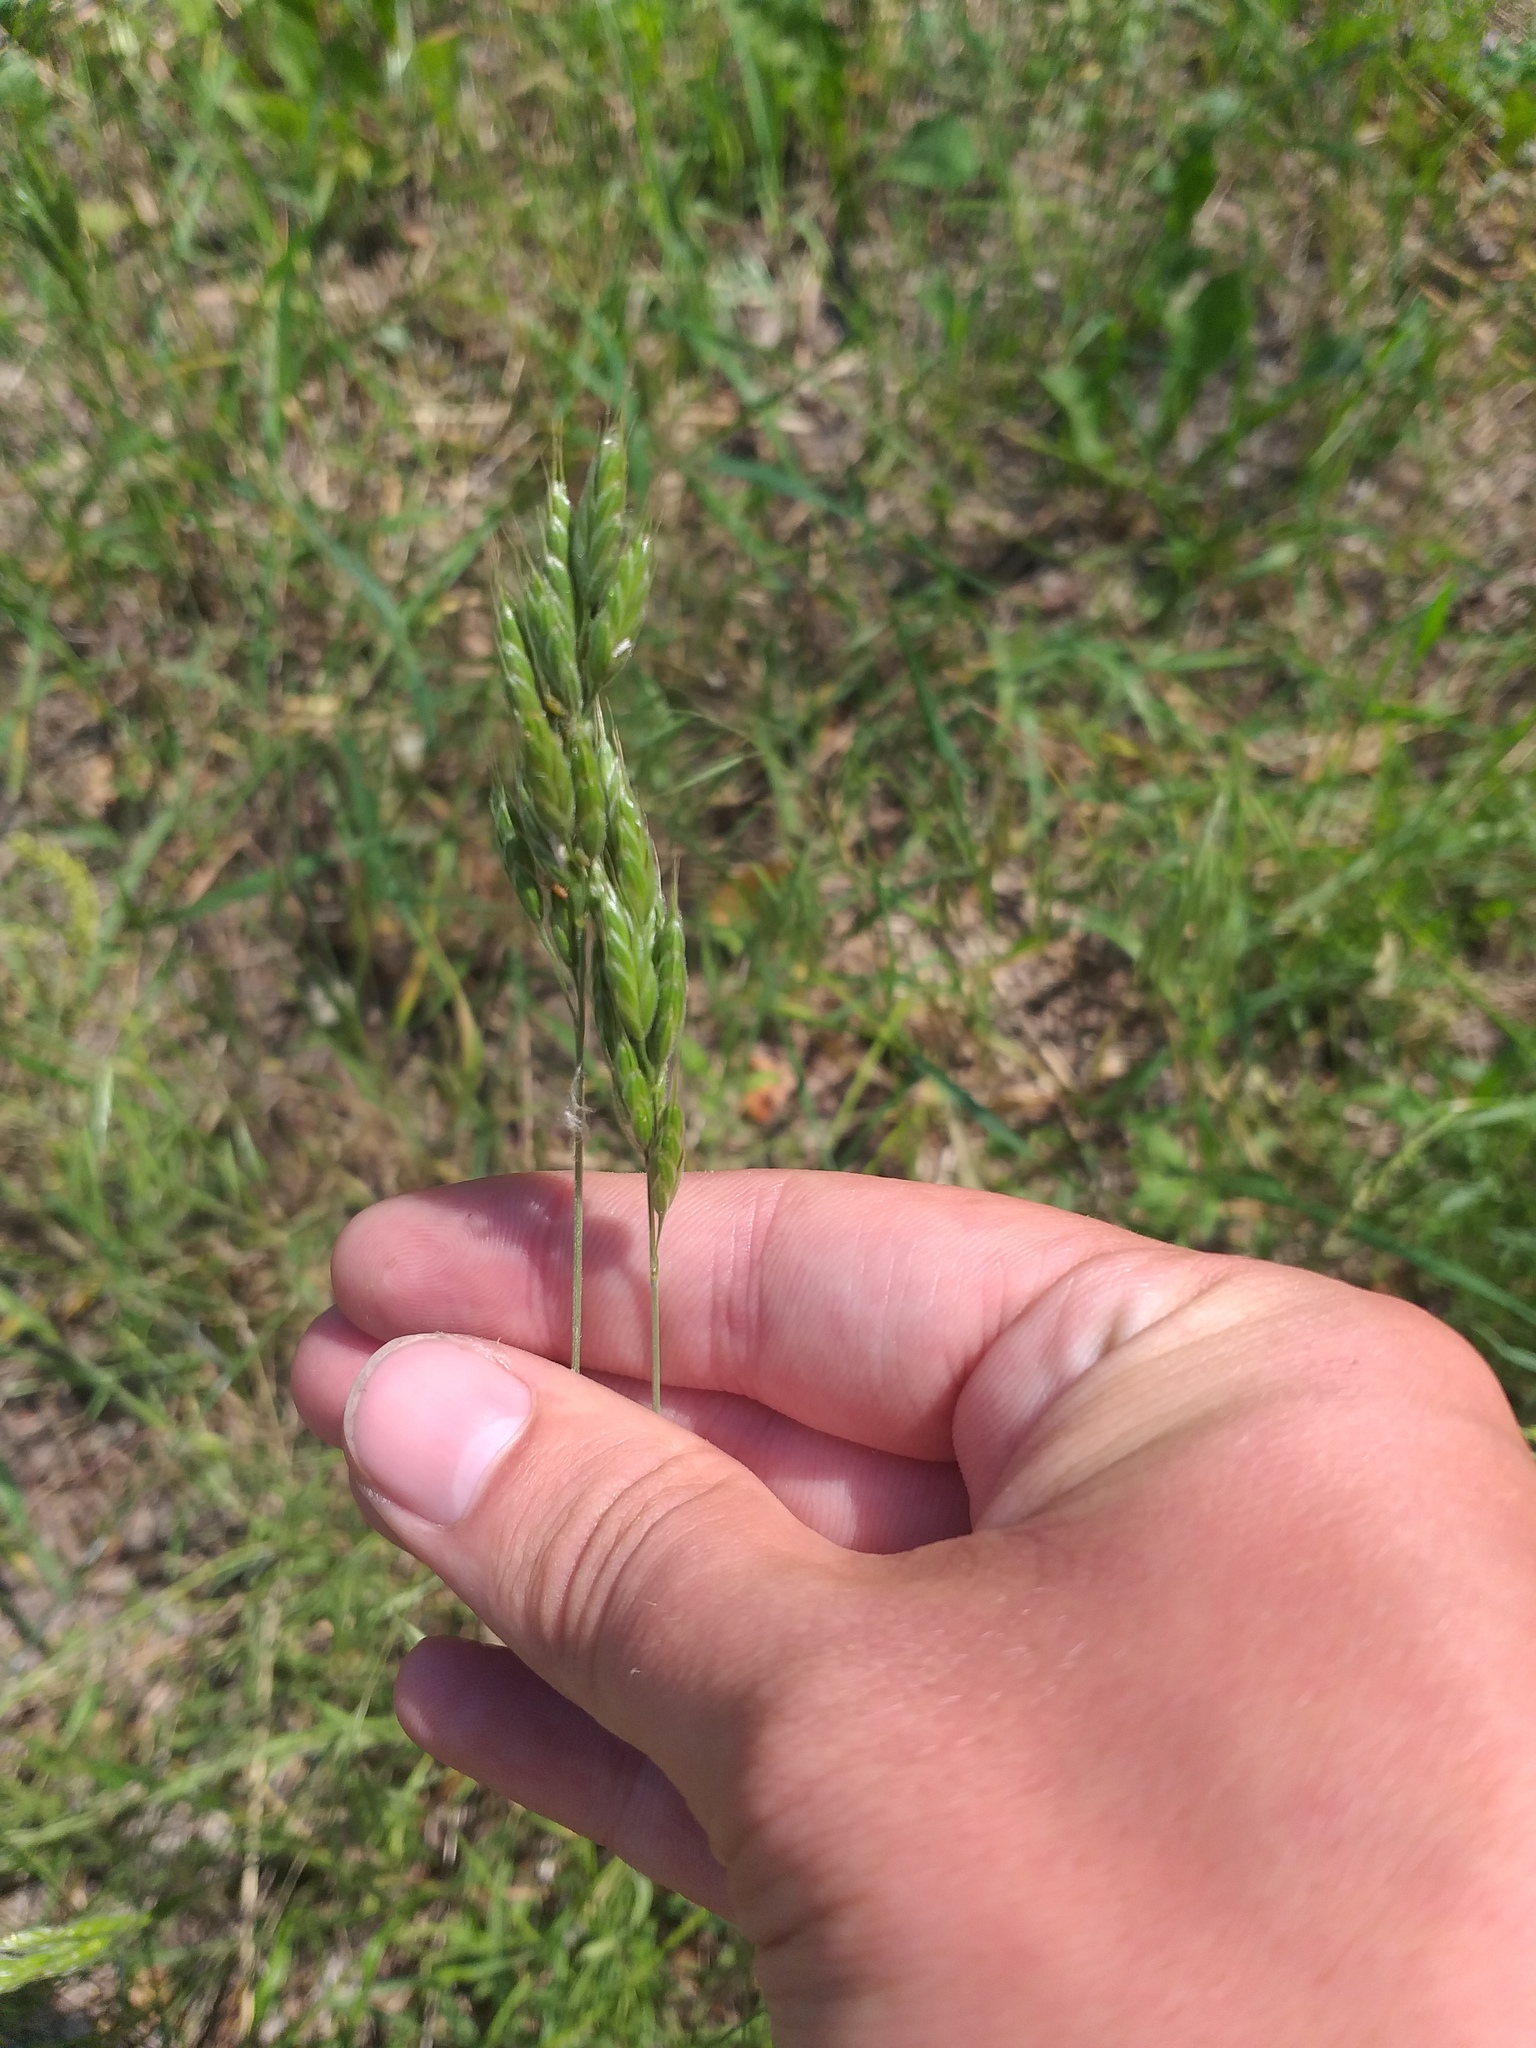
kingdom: Plantae
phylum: Tracheophyta
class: Liliopsida
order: Poales
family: Poaceae
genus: Bromus
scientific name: Bromus hordeaceus
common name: Soft brome
